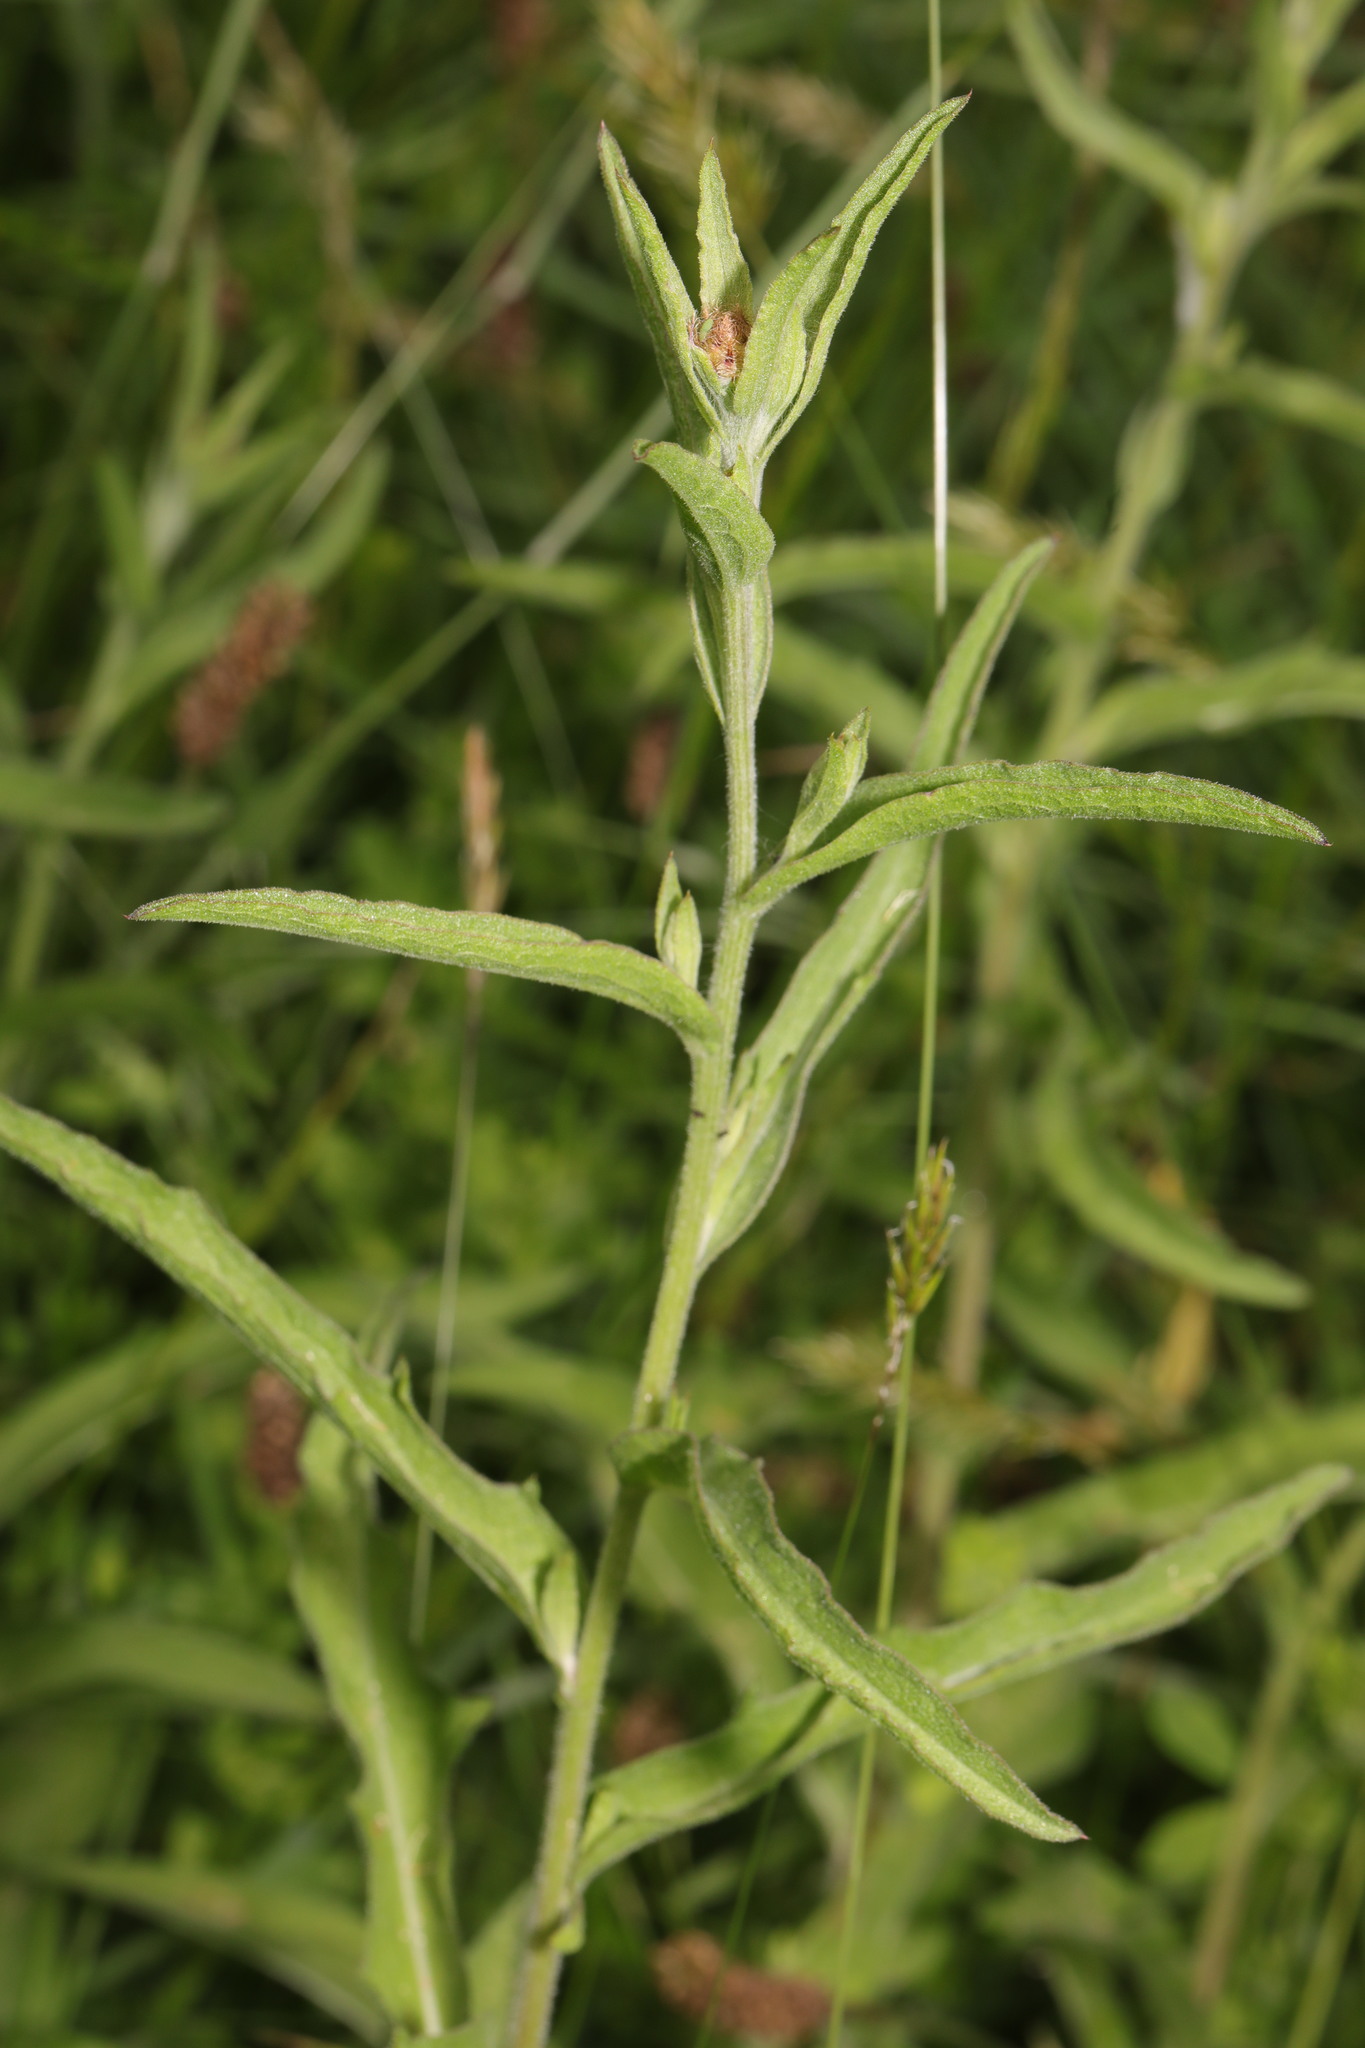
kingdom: Plantae
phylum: Tracheophyta
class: Magnoliopsida
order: Asterales
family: Asteraceae
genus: Centaurea
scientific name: Centaurea nigra
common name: Lesser knapweed
